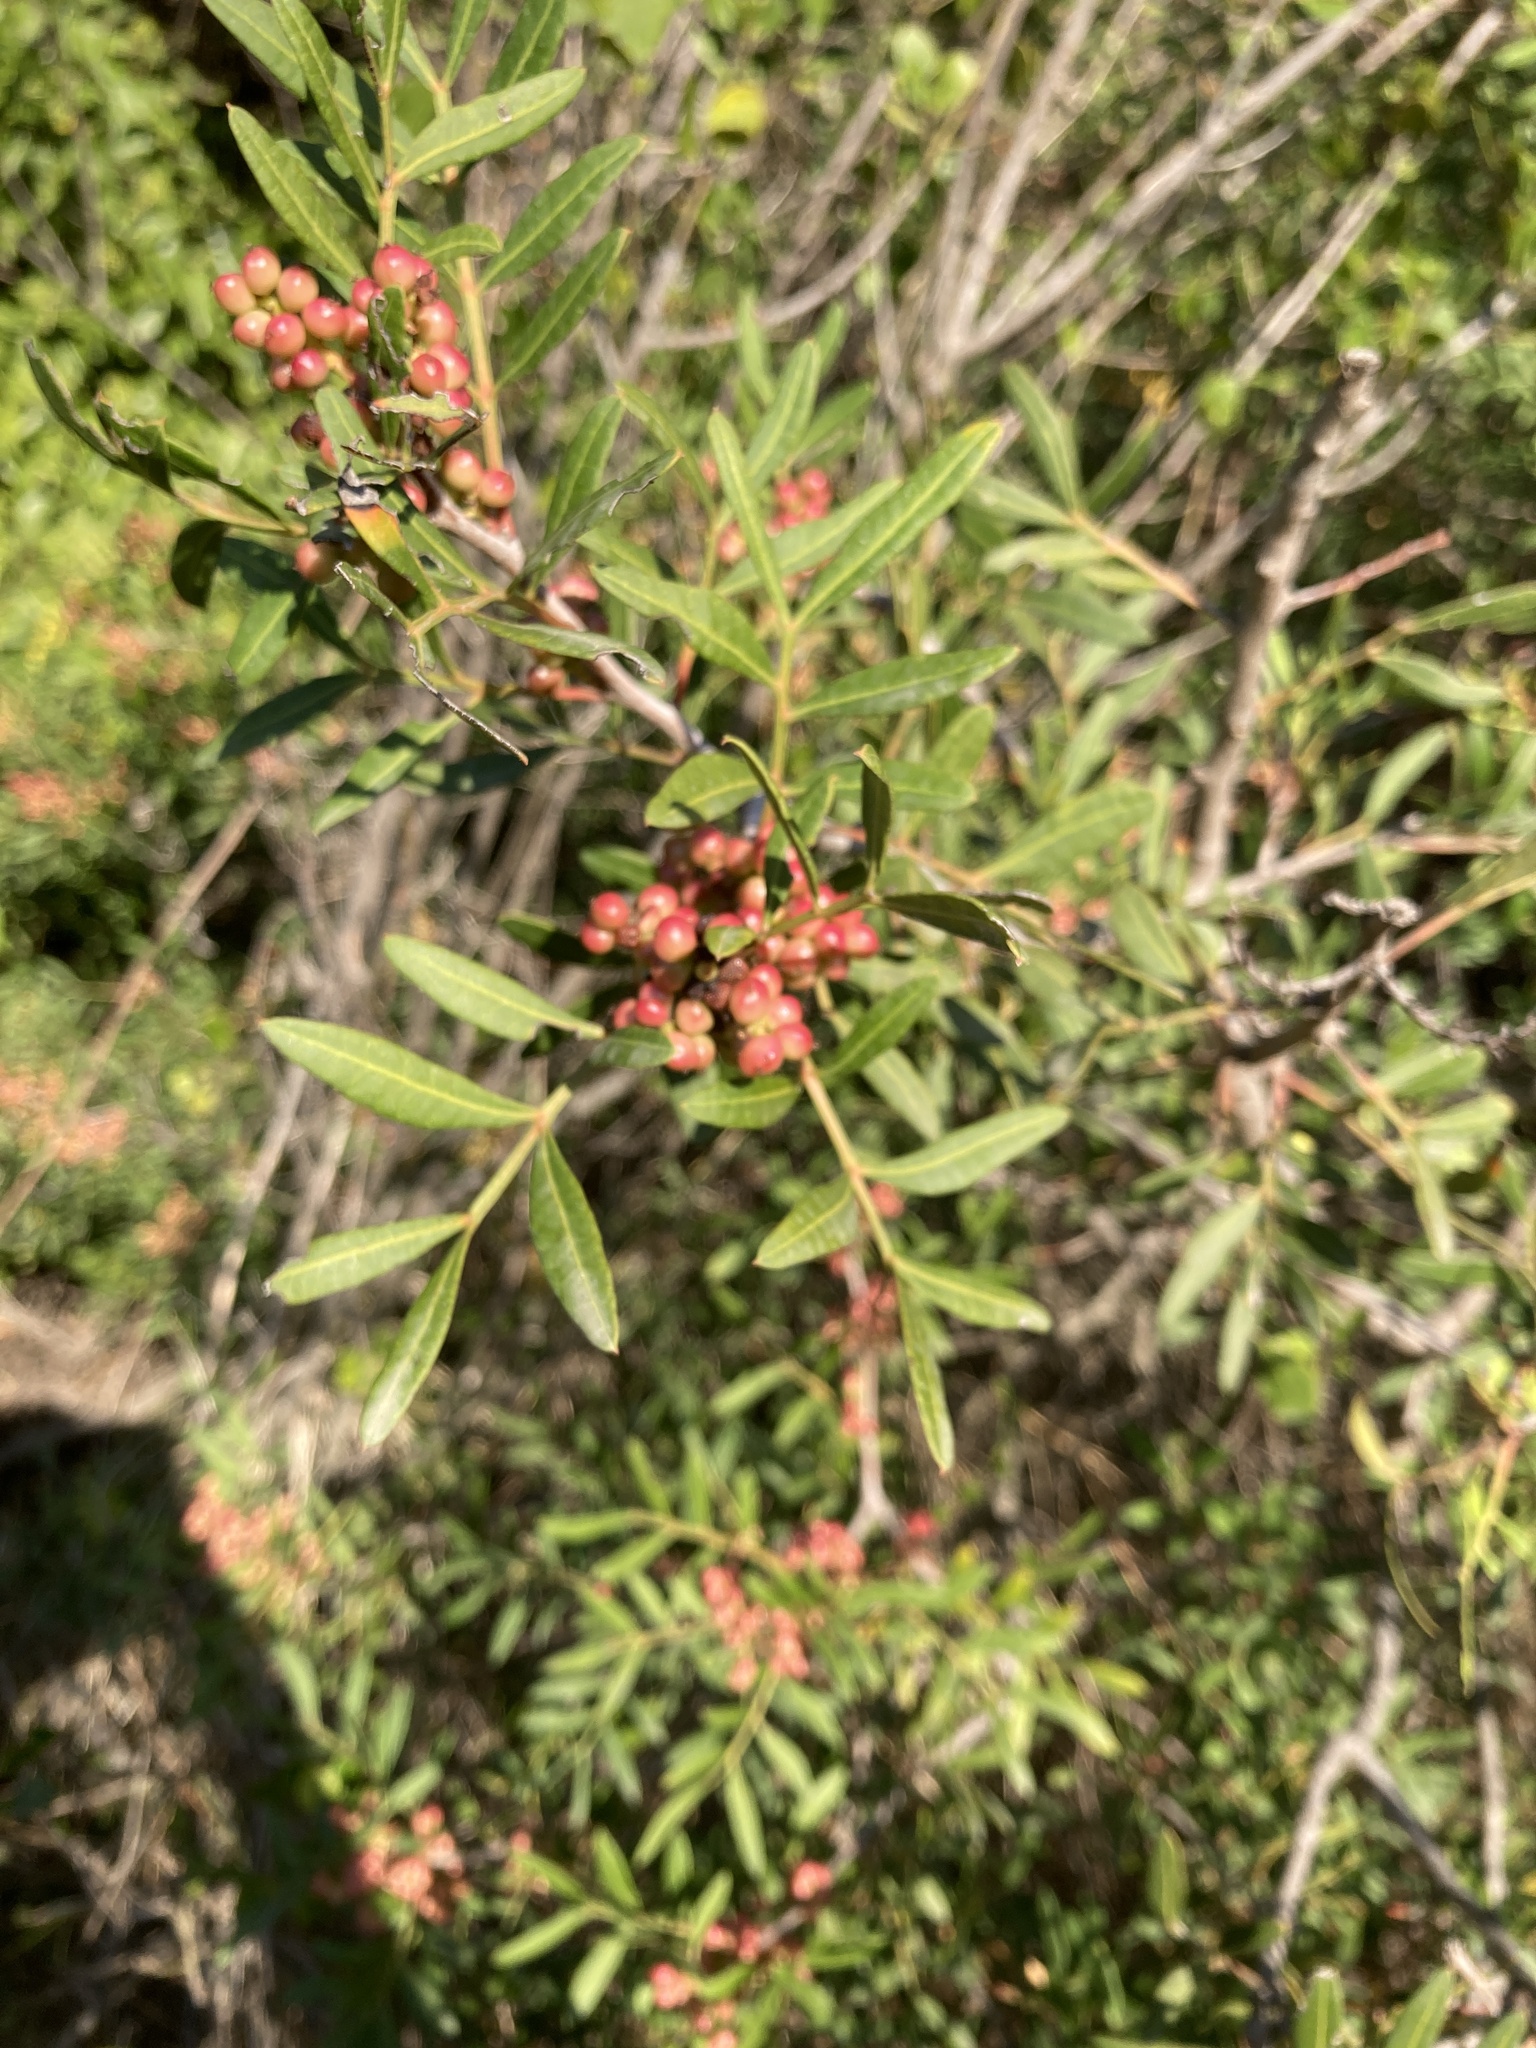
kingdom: Plantae
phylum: Tracheophyta
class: Magnoliopsida
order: Sapindales
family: Anacardiaceae
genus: Pistacia
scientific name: Pistacia lentiscus
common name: Lentisk
